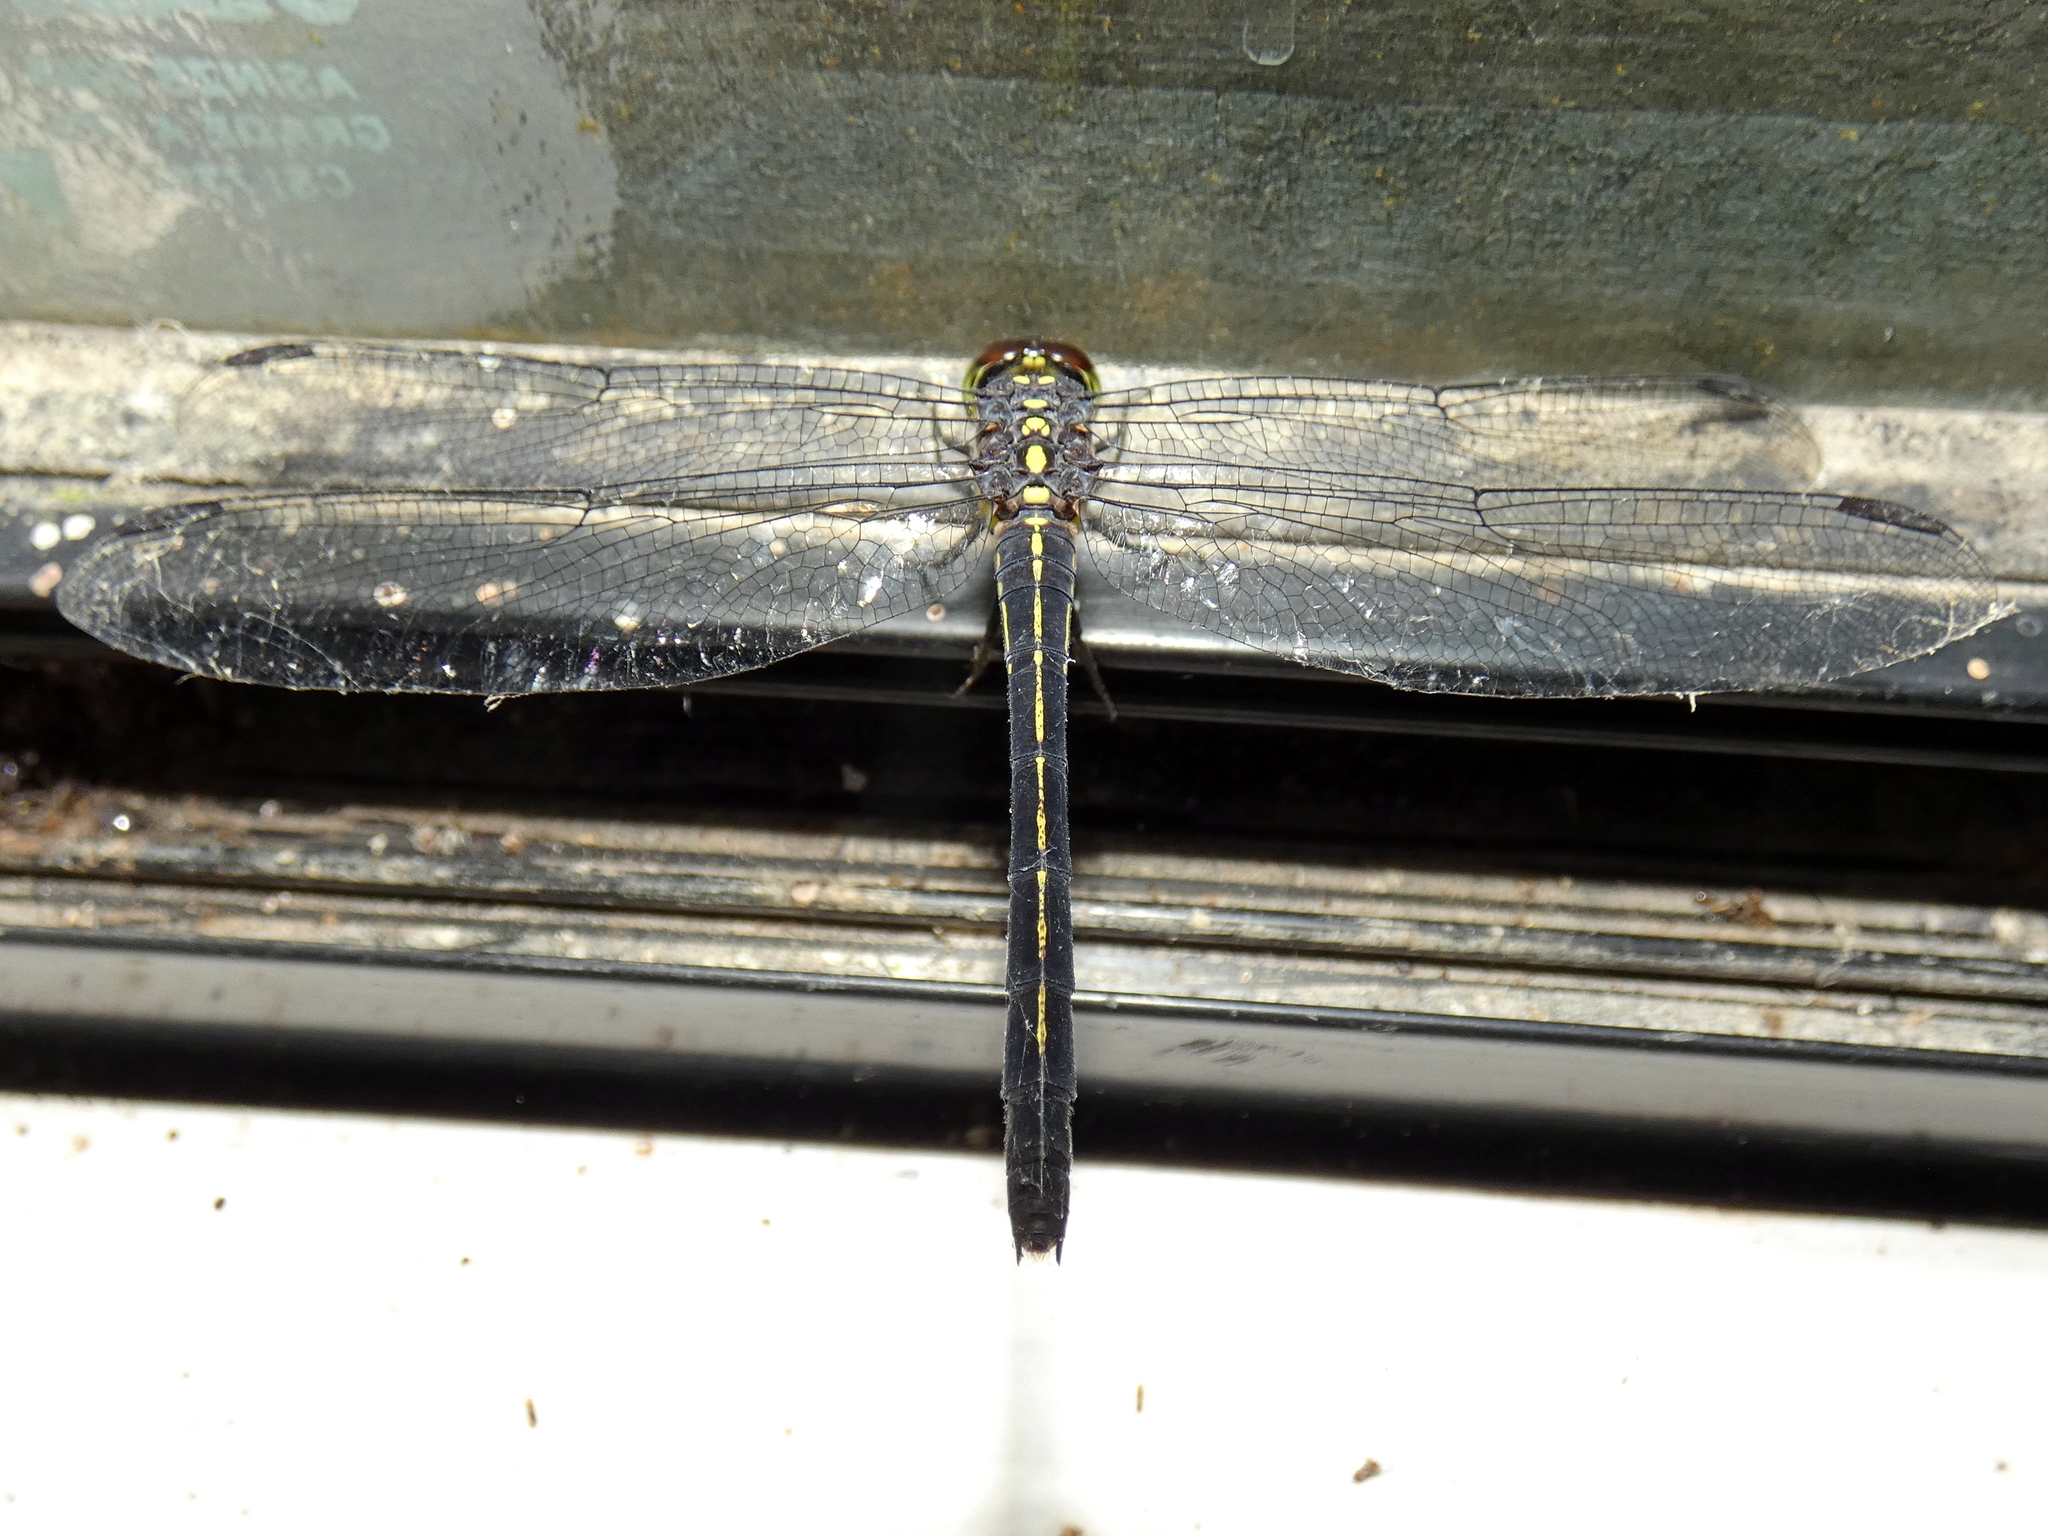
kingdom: Animalia
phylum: Arthropoda
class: Insecta
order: Odonata
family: Libellulidae
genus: Agrionoptera
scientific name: Agrionoptera longitudinalis
